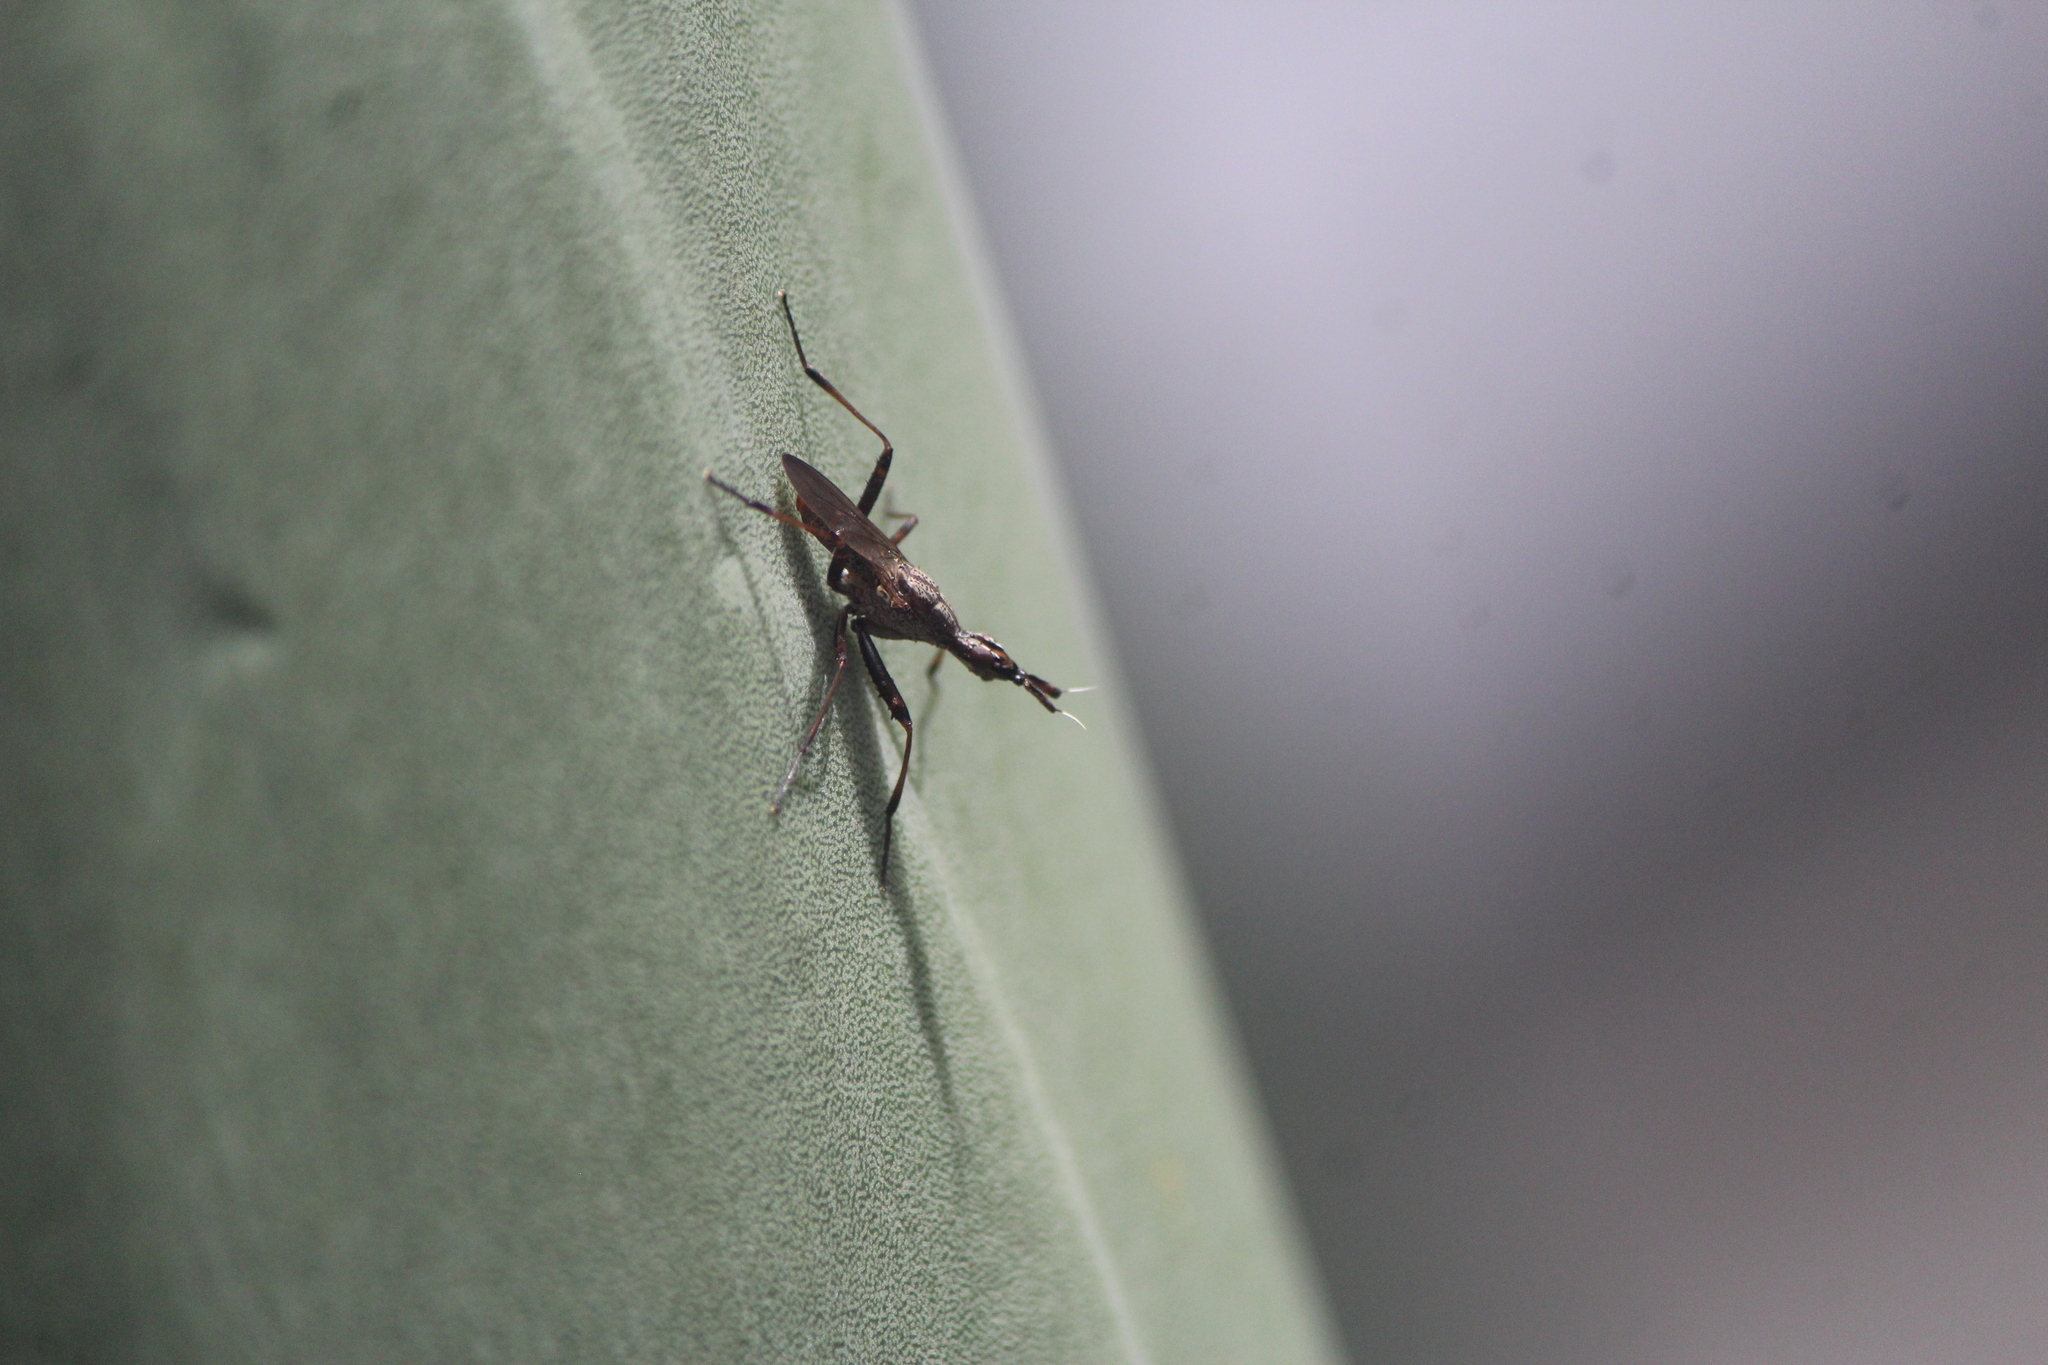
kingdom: Animalia
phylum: Arthropoda
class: Insecta
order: Diptera
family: Neriidae
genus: Odontoloxozus
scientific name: Odontoloxozus longicornis
